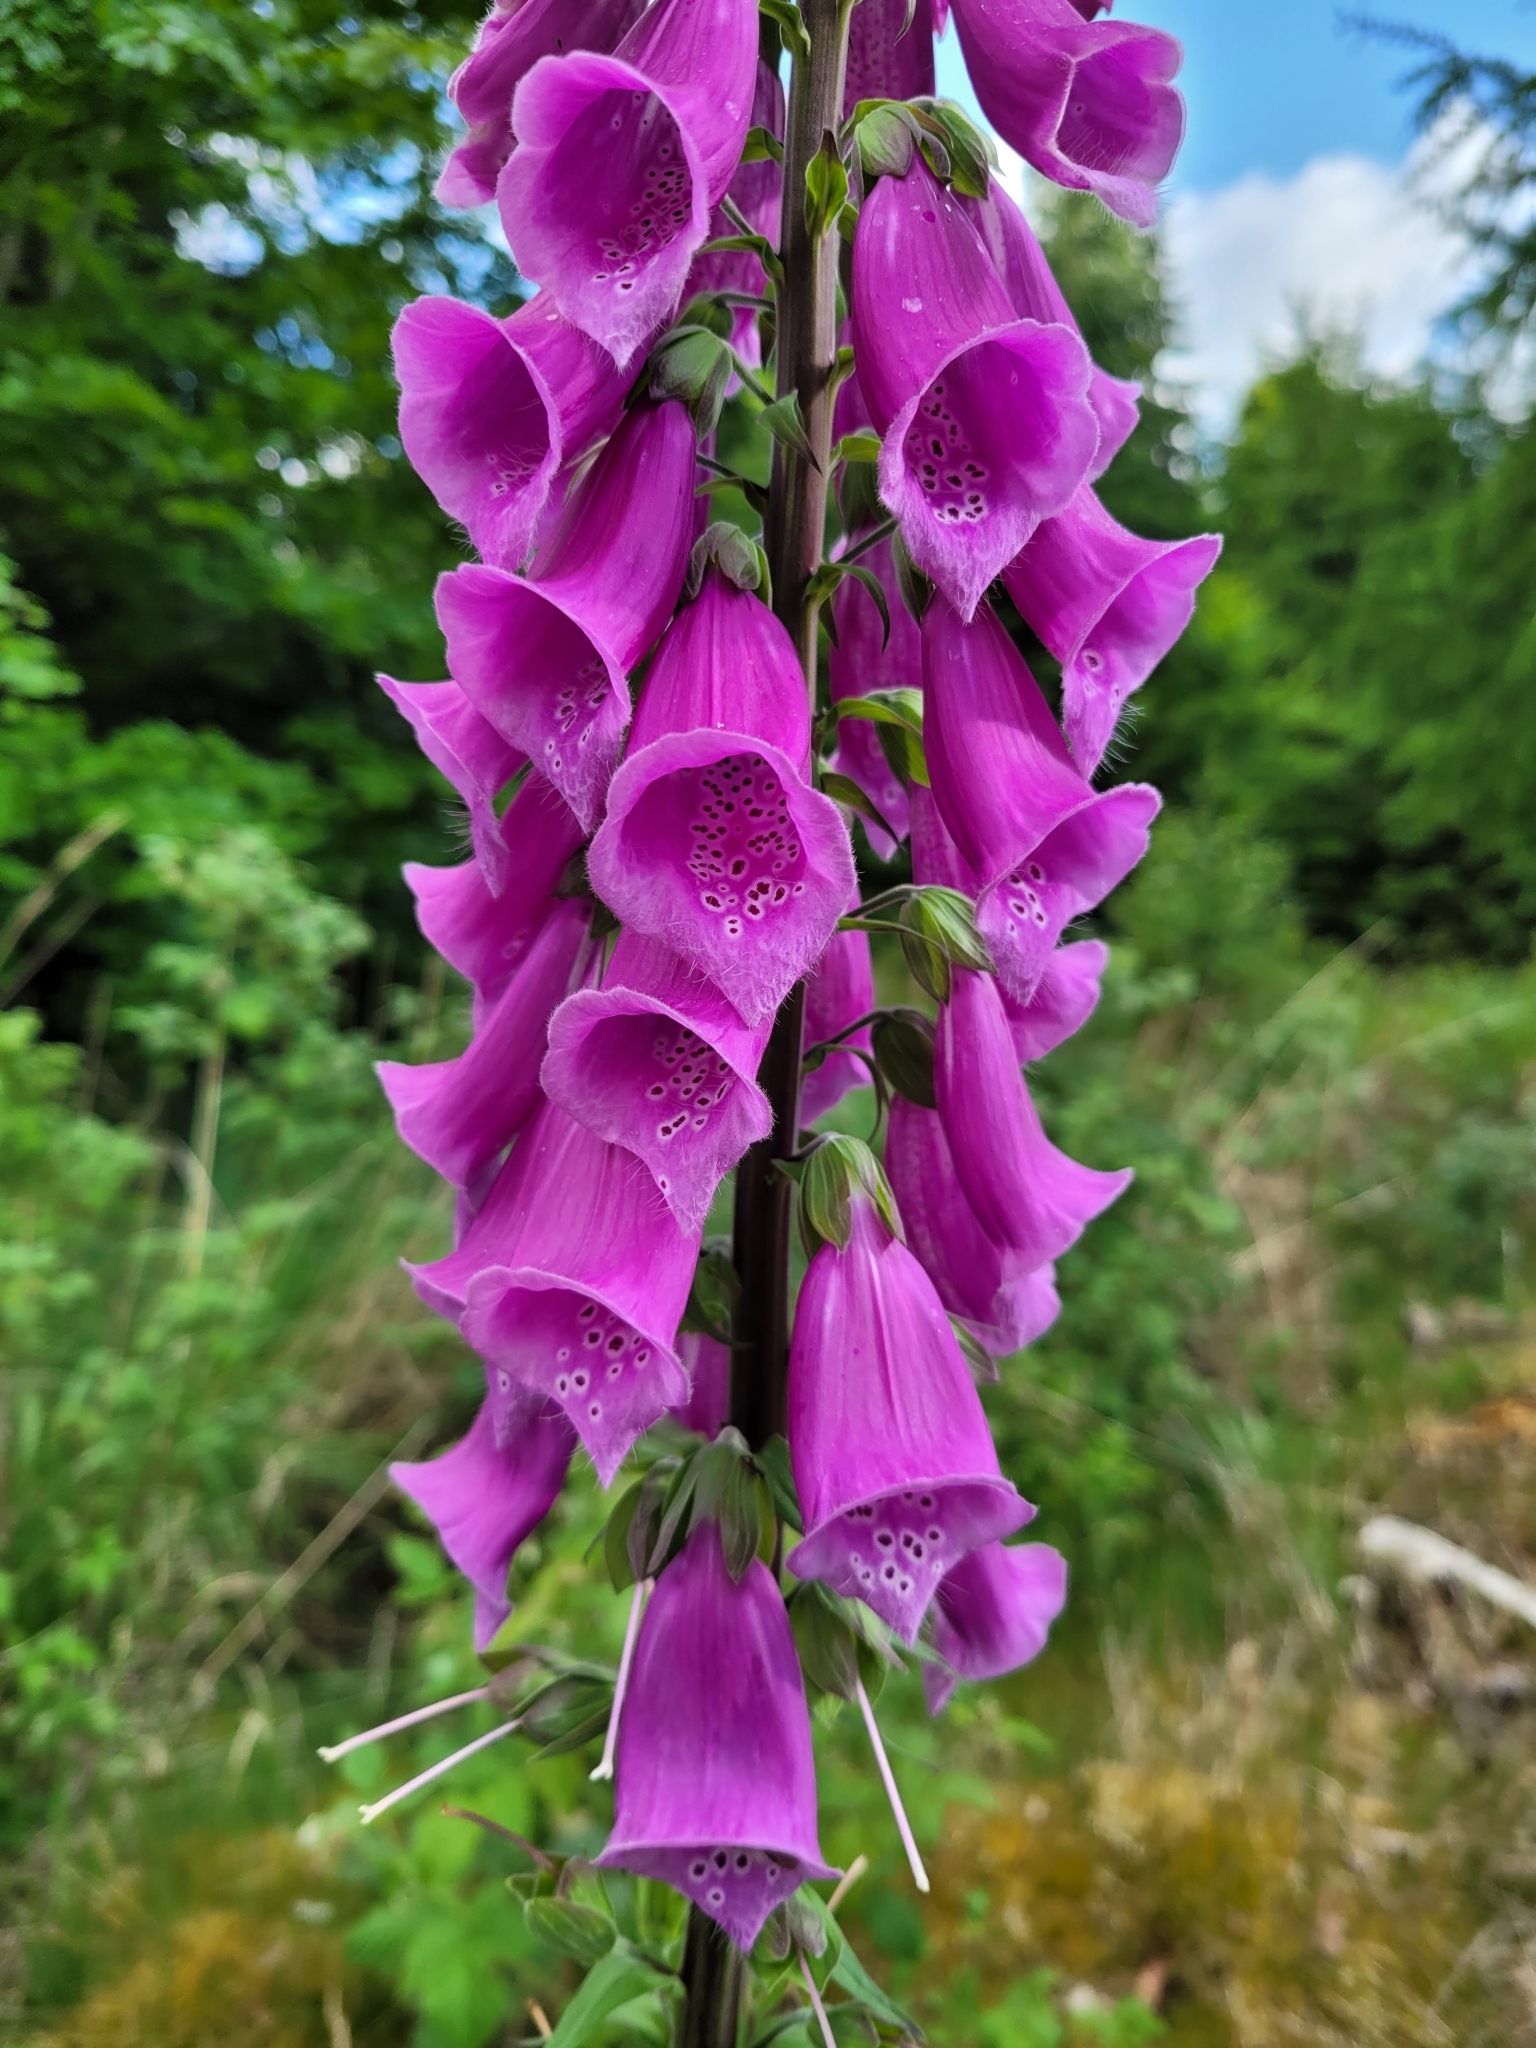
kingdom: Plantae
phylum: Tracheophyta
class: Magnoliopsida
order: Lamiales
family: Plantaginaceae
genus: Digitalis
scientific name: Digitalis purpurea
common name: Foxglove
